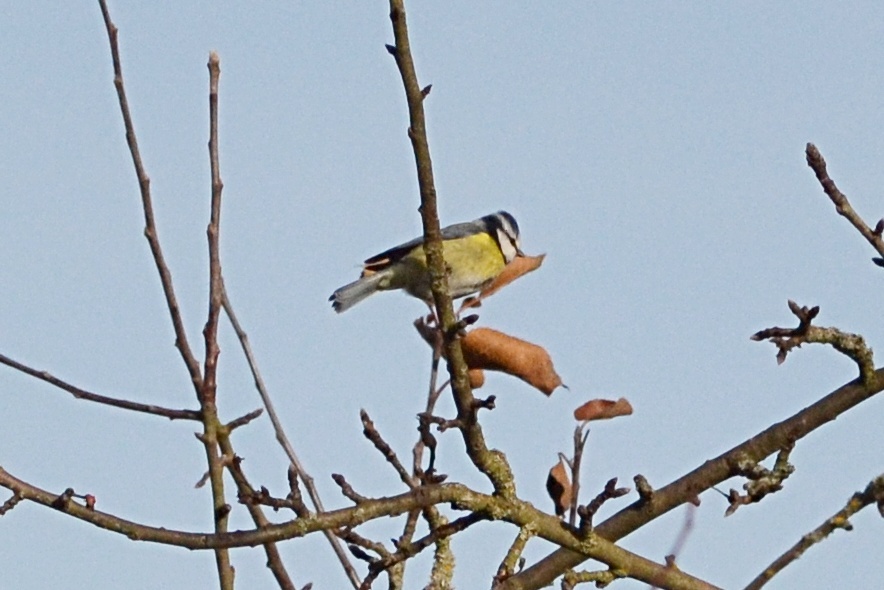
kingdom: Animalia
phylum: Chordata
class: Aves
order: Passeriformes
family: Paridae
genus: Cyanistes
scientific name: Cyanistes caeruleus
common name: Eurasian blue tit
